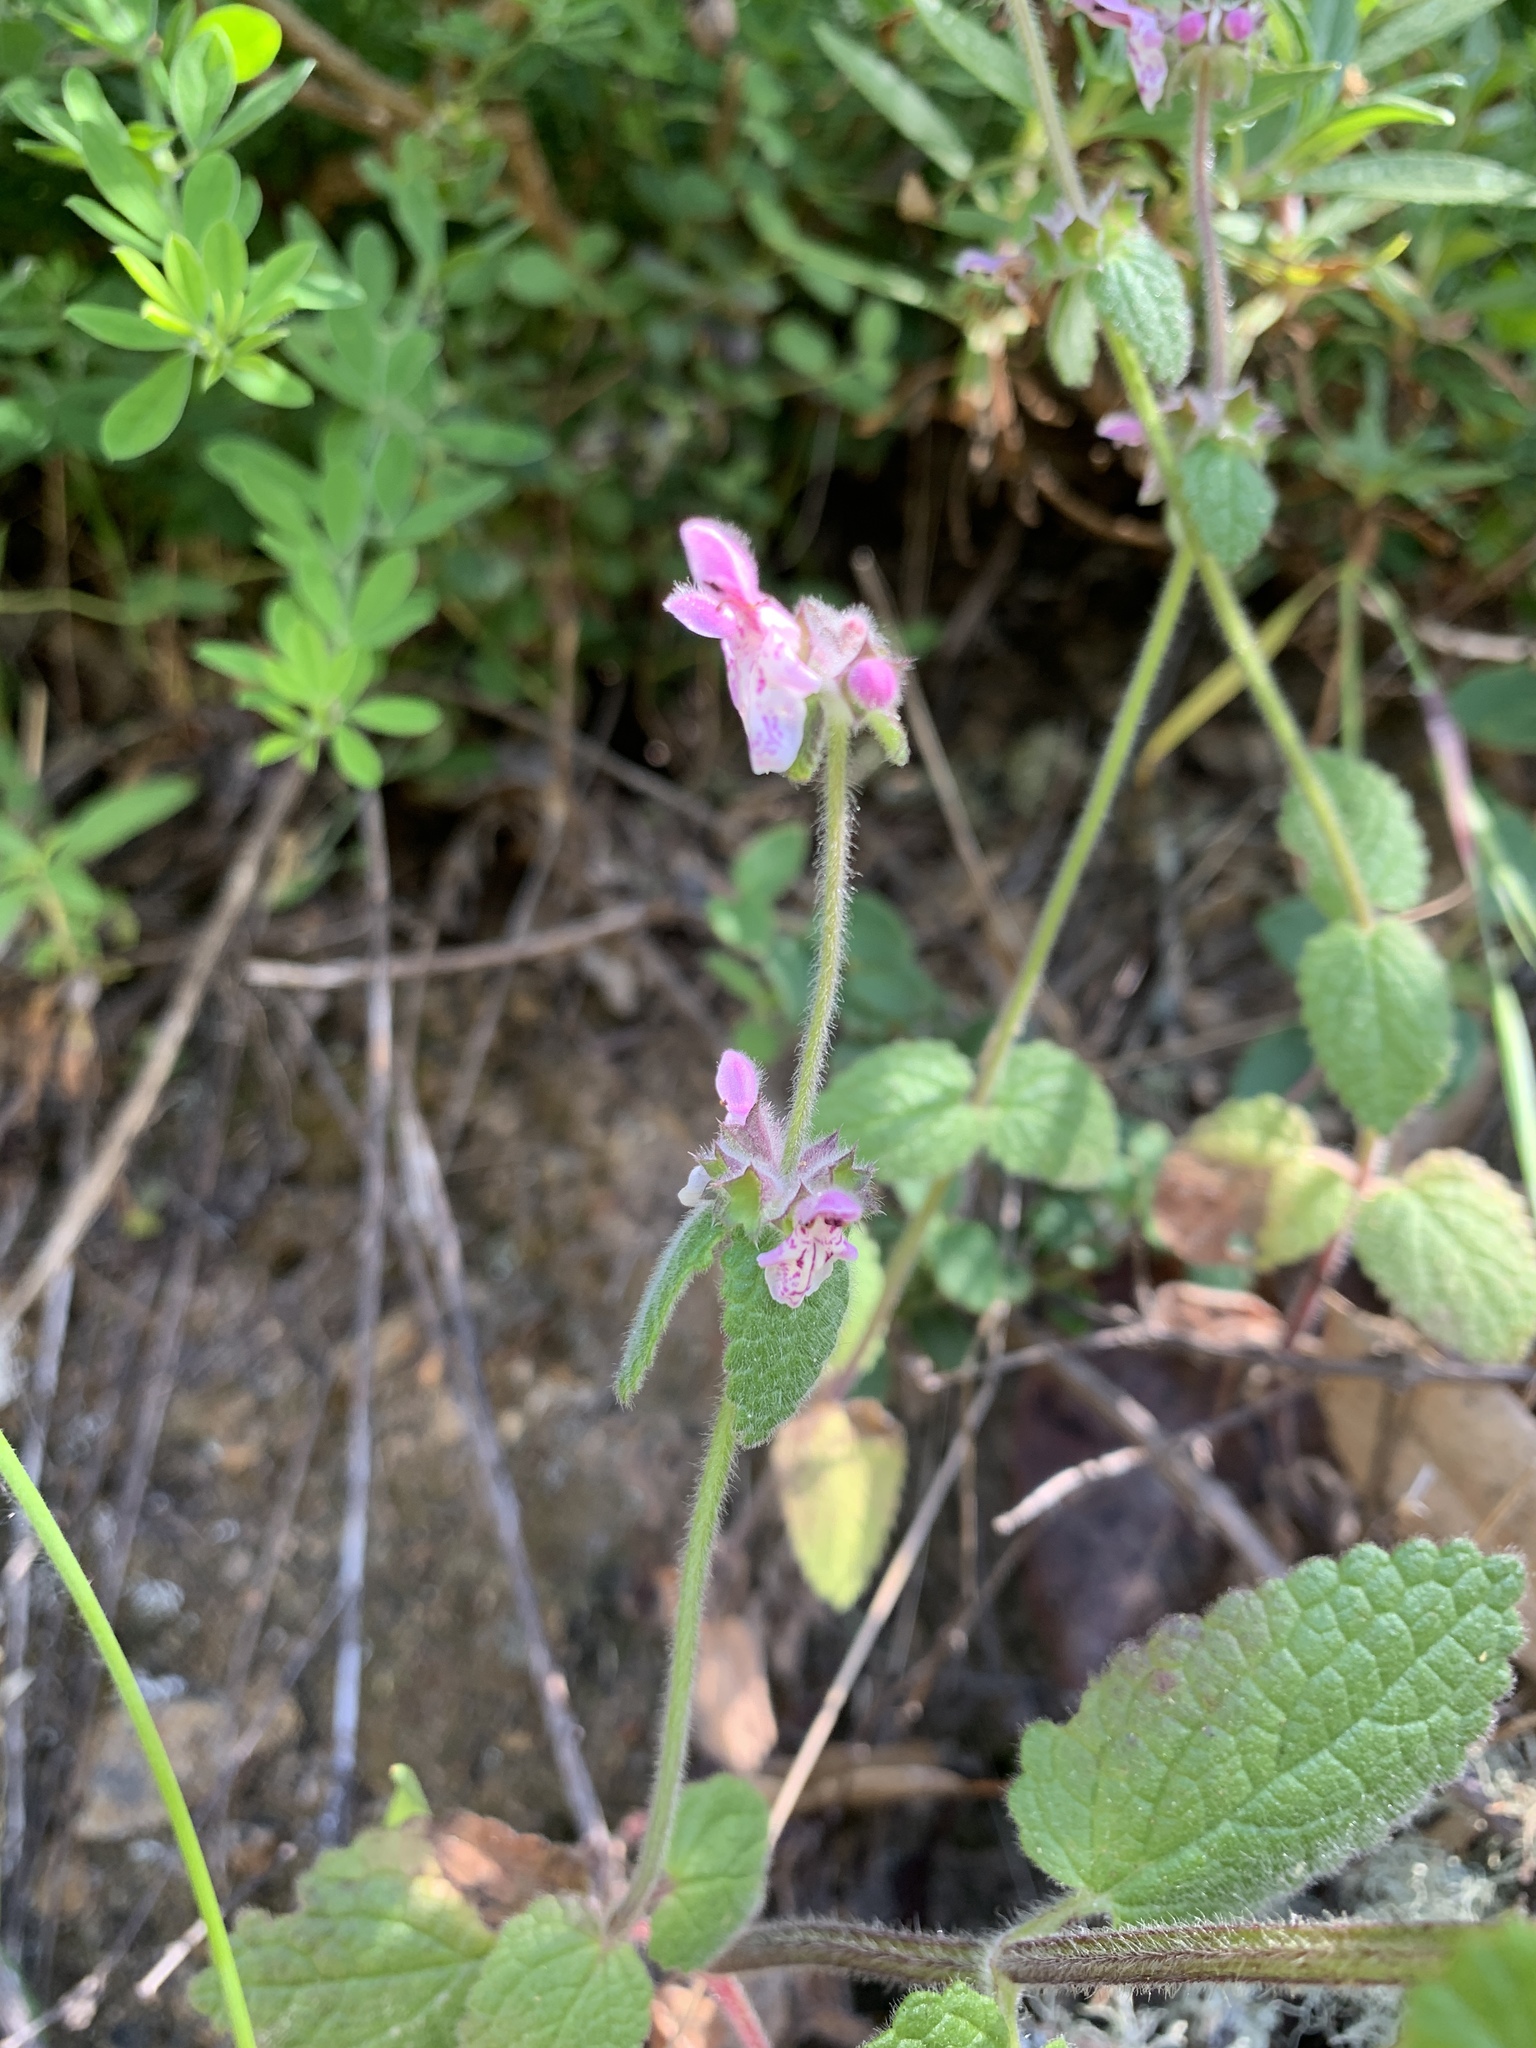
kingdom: Plantae
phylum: Tracheophyta
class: Magnoliopsida
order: Lamiales
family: Lamiaceae
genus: Stachys
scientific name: Stachys rigida
